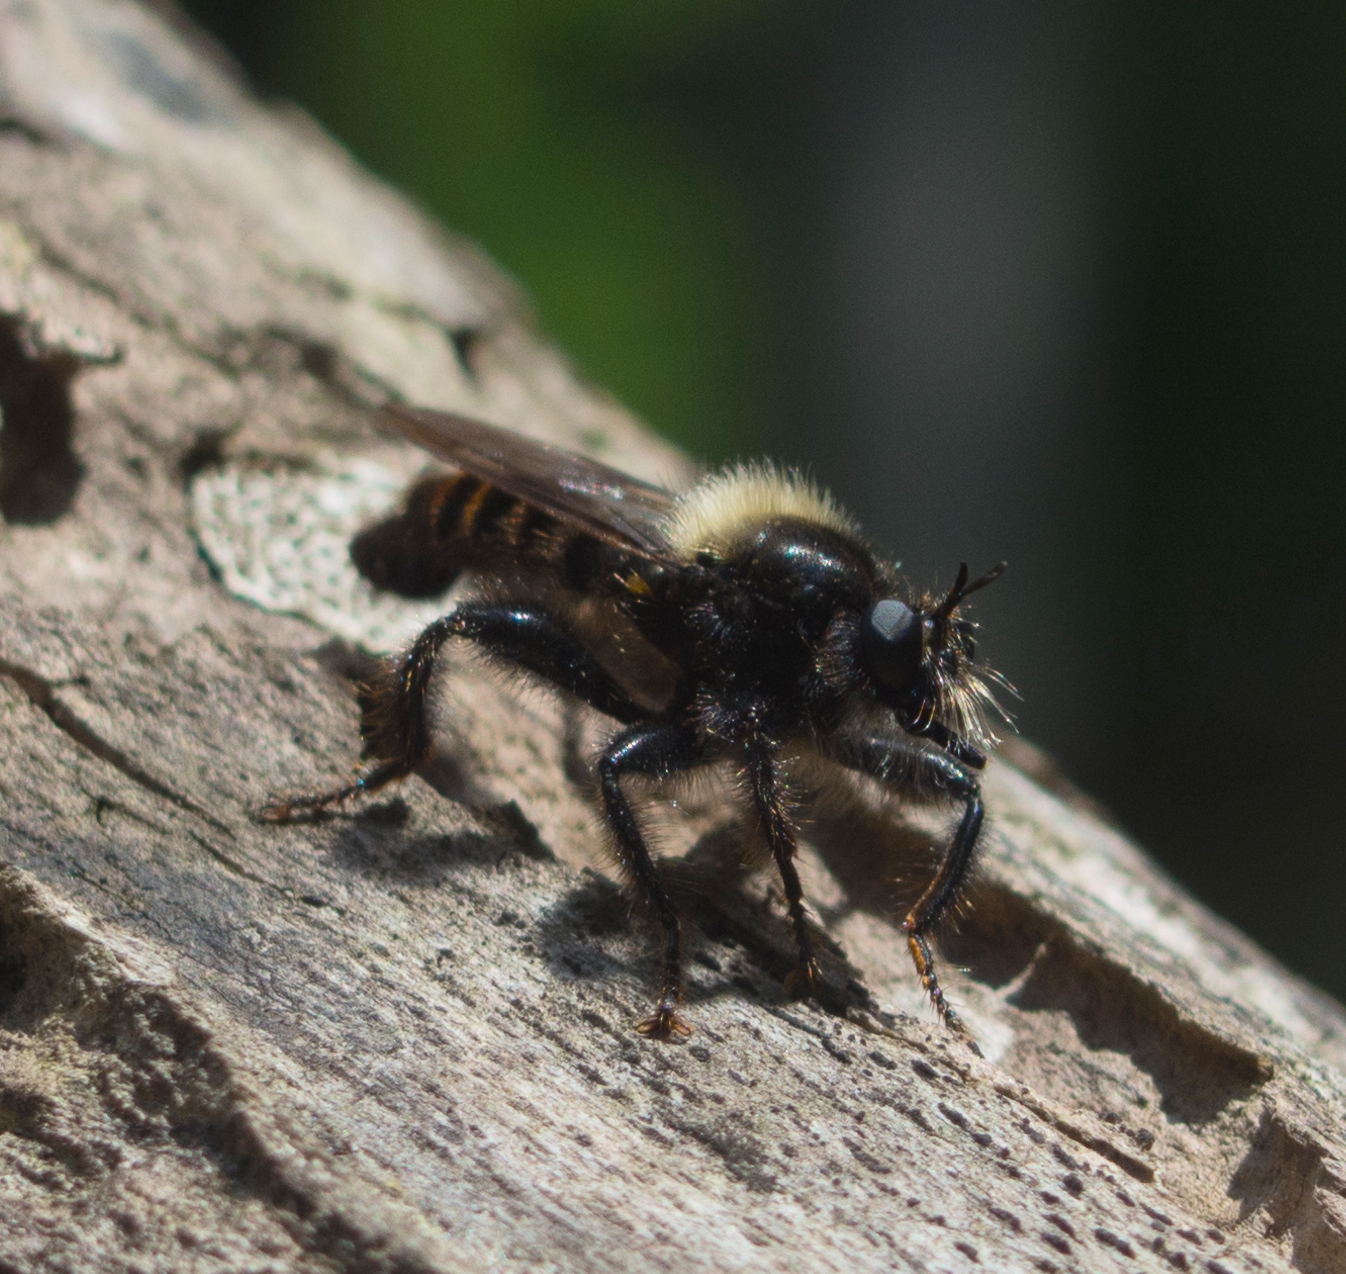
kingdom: Animalia
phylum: Arthropoda
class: Insecta
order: Diptera
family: Asilidae
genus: Laphria
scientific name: Laphria ephippium
